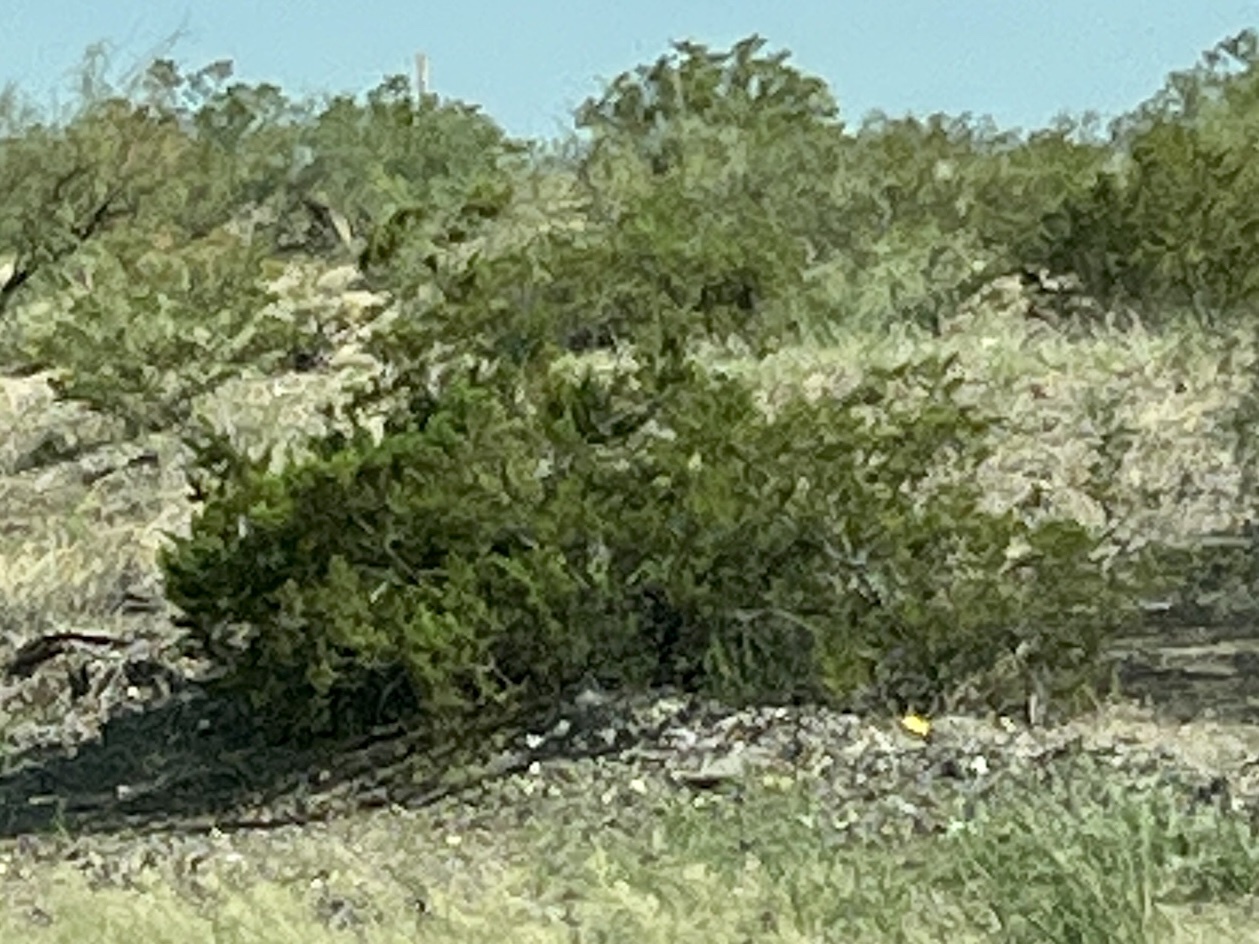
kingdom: Plantae
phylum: Tracheophyta
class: Magnoliopsida
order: Zygophyllales
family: Zygophyllaceae
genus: Larrea
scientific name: Larrea tridentata
